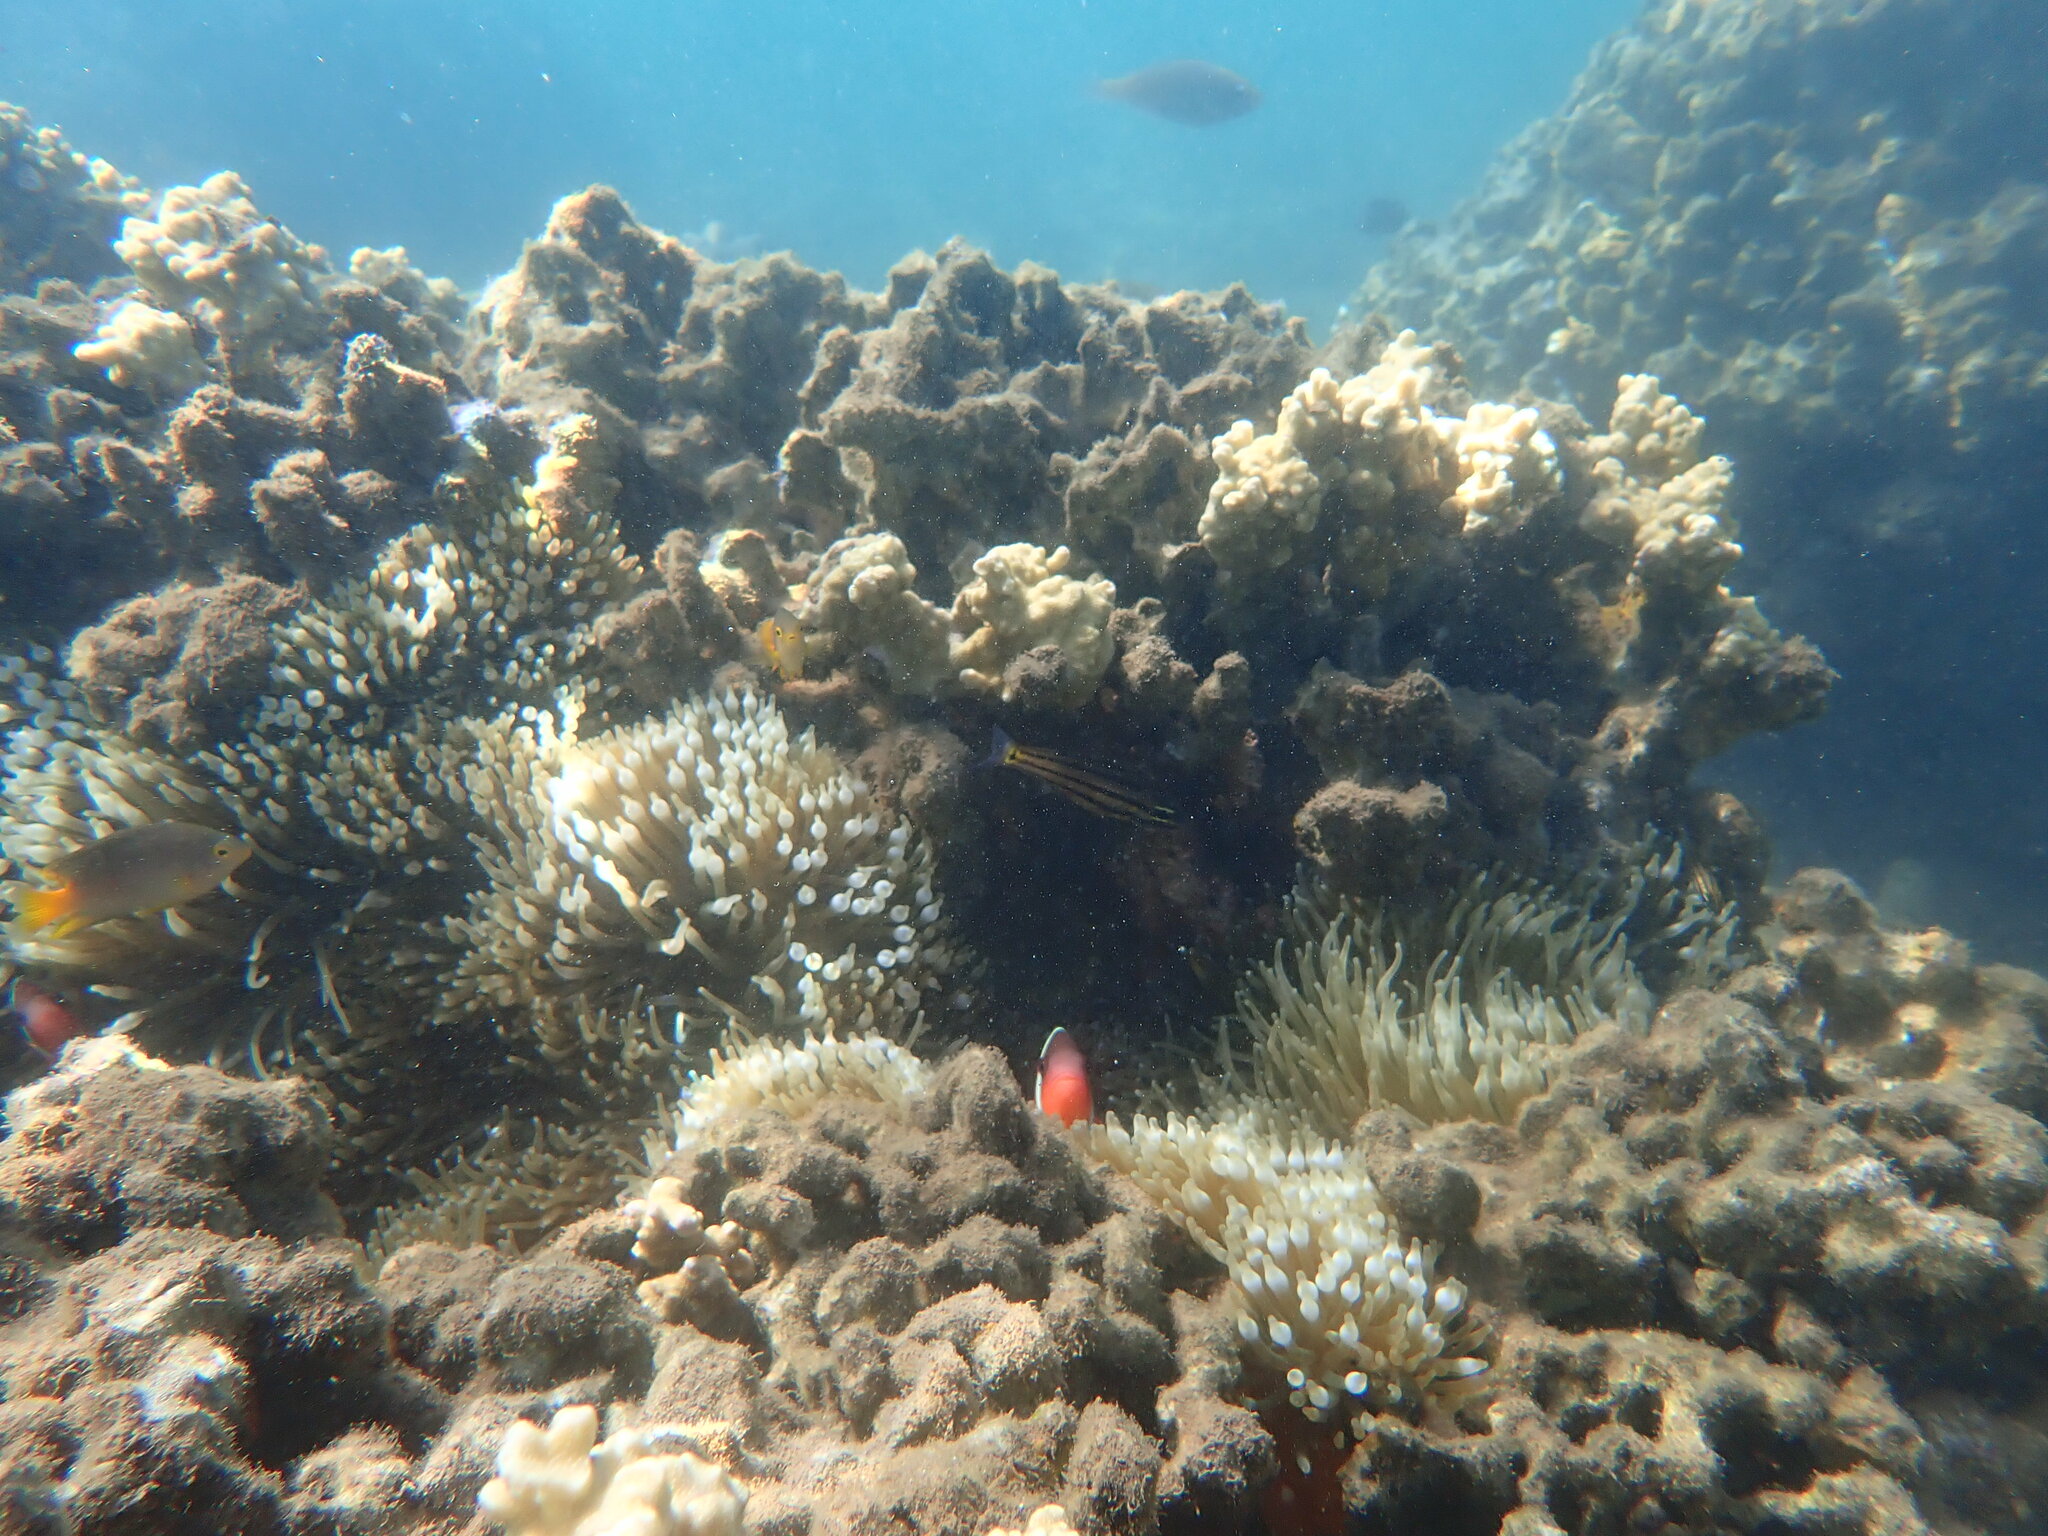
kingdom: Animalia
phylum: Chordata
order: Perciformes
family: Pomacentridae
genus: Amphiprion
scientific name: Amphiprion barberi
